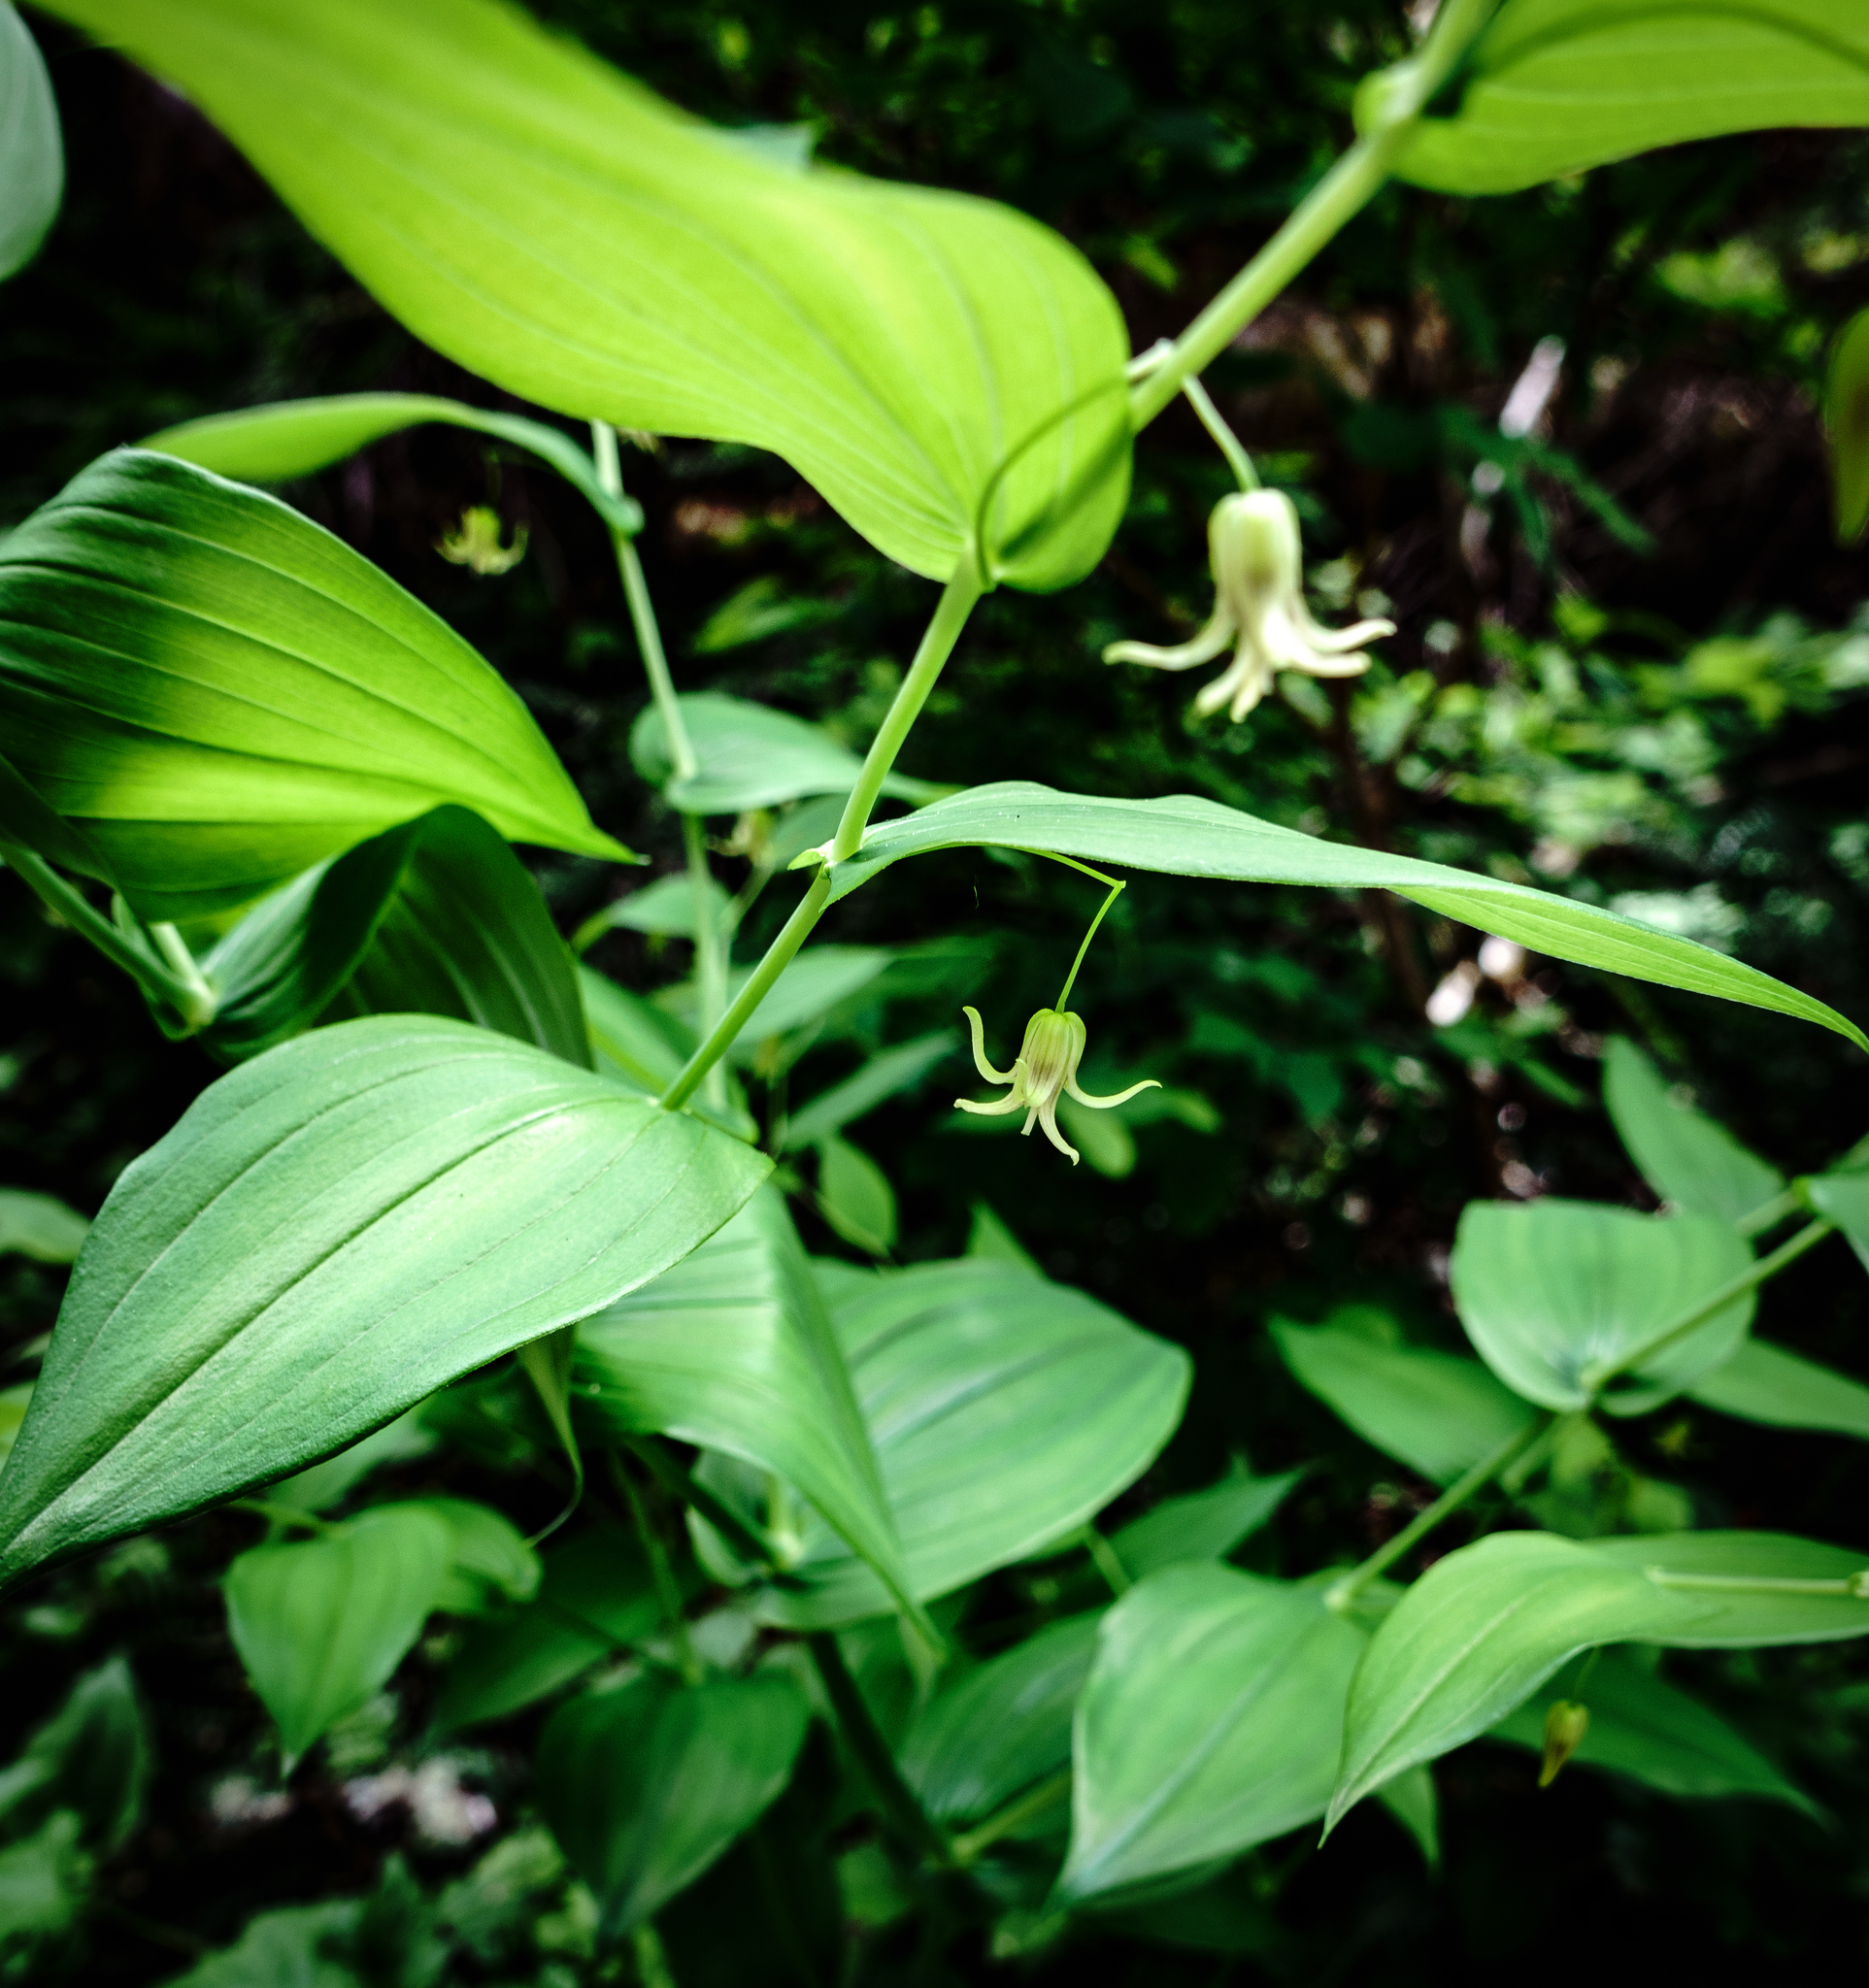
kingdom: Plantae
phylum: Tracheophyta
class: Liliopsida
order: Liliales
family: Liliaceae
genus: Streptopus
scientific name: Streptopus amplexifolius
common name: Clasp twisted stalk
